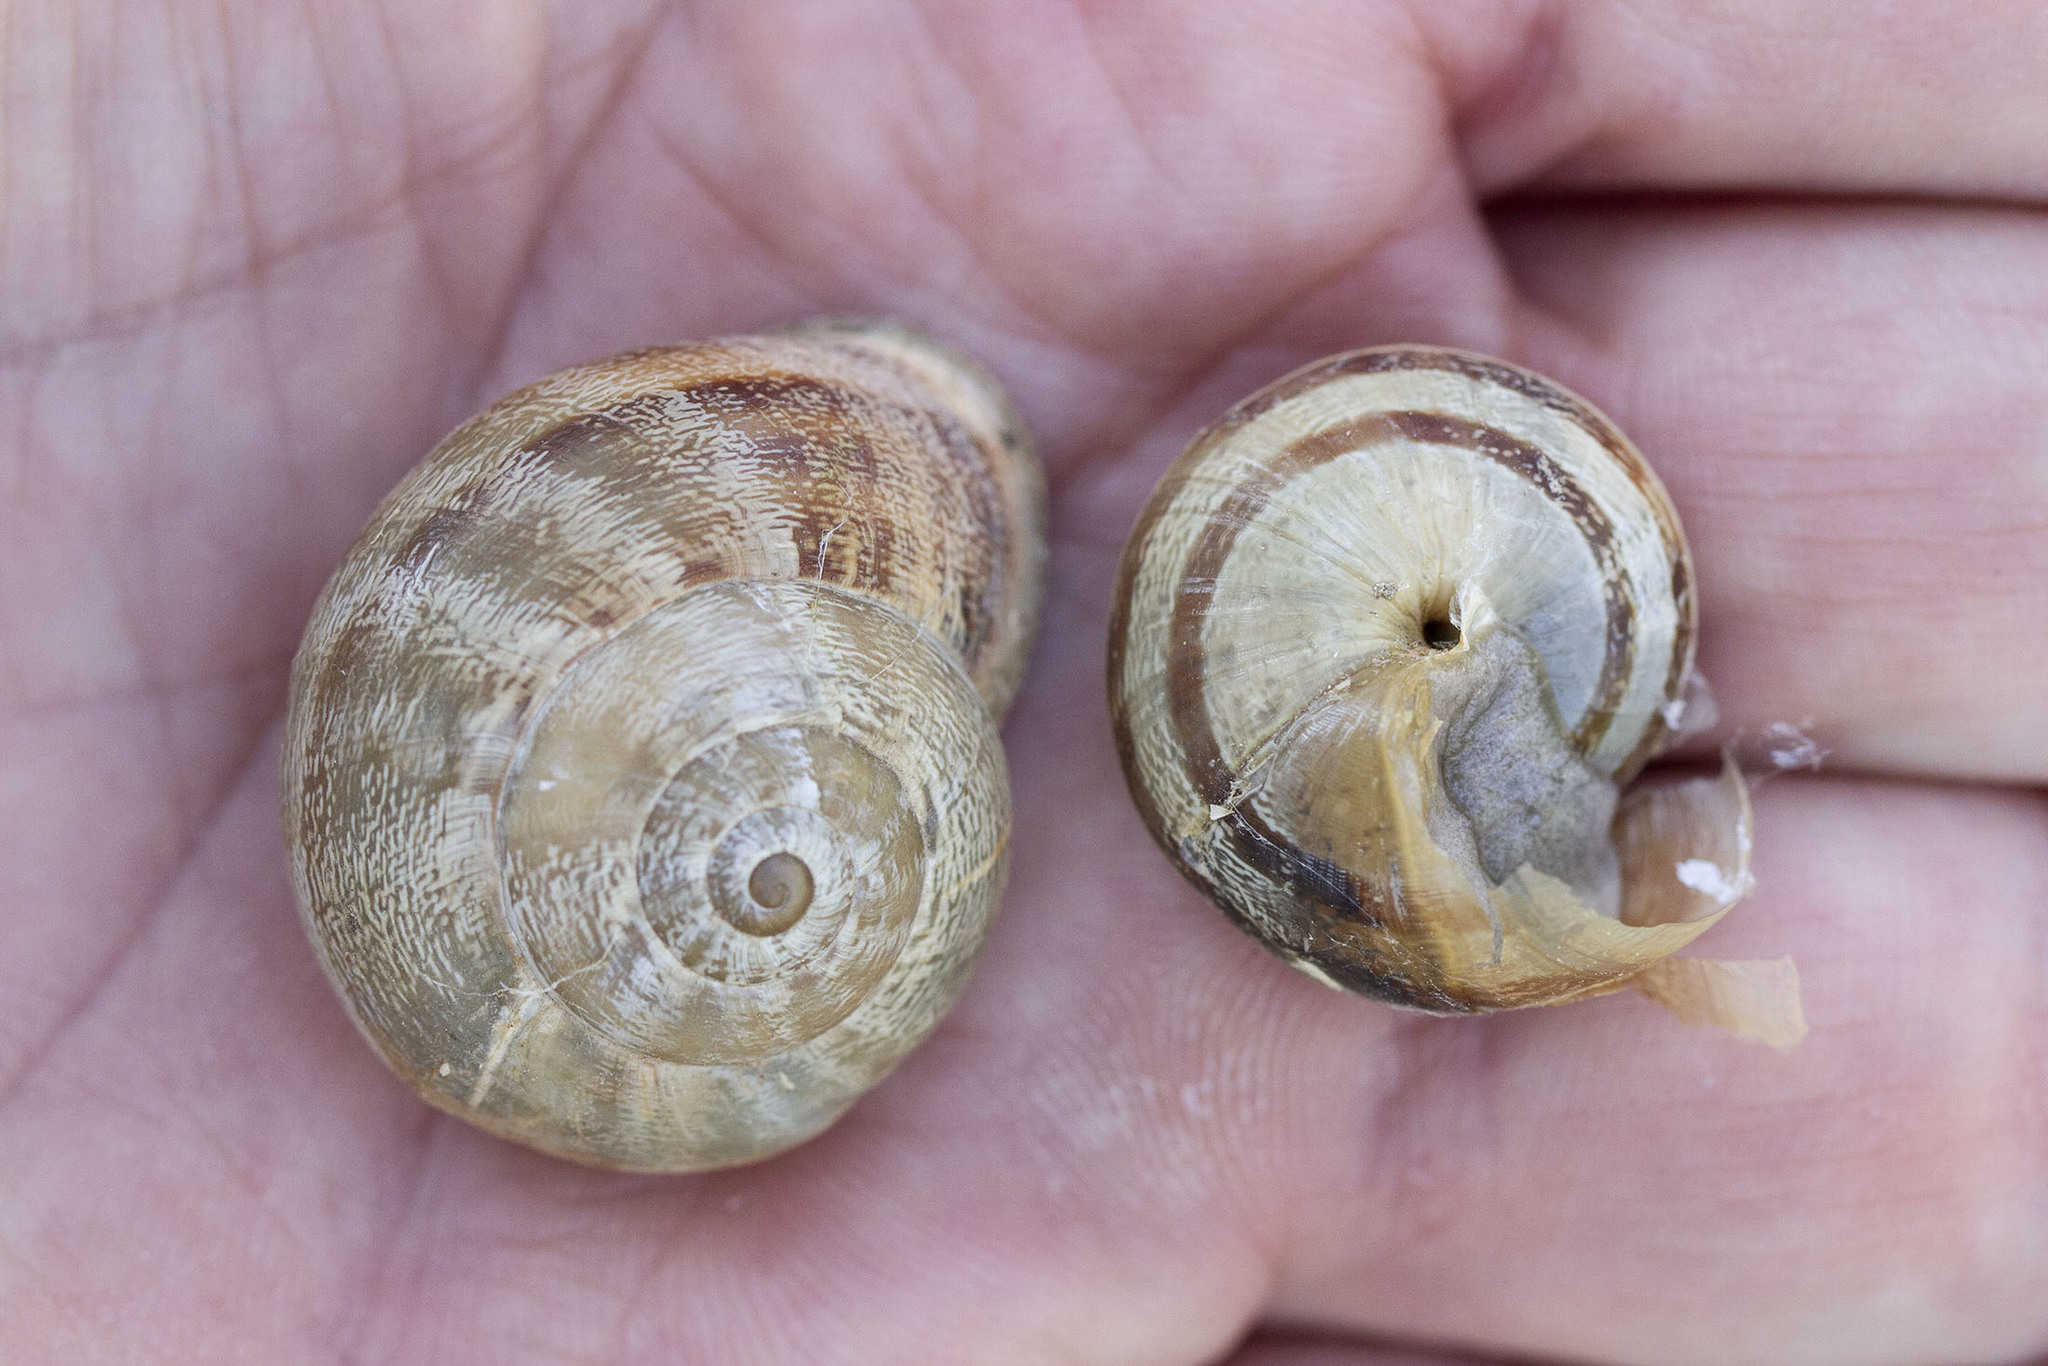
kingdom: Animalia
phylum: Mollusca
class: Gastropoda
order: Stylommatophora
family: Helicidae
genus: Eobania
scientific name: Eobania vermiculata
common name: Chocolateband snail
